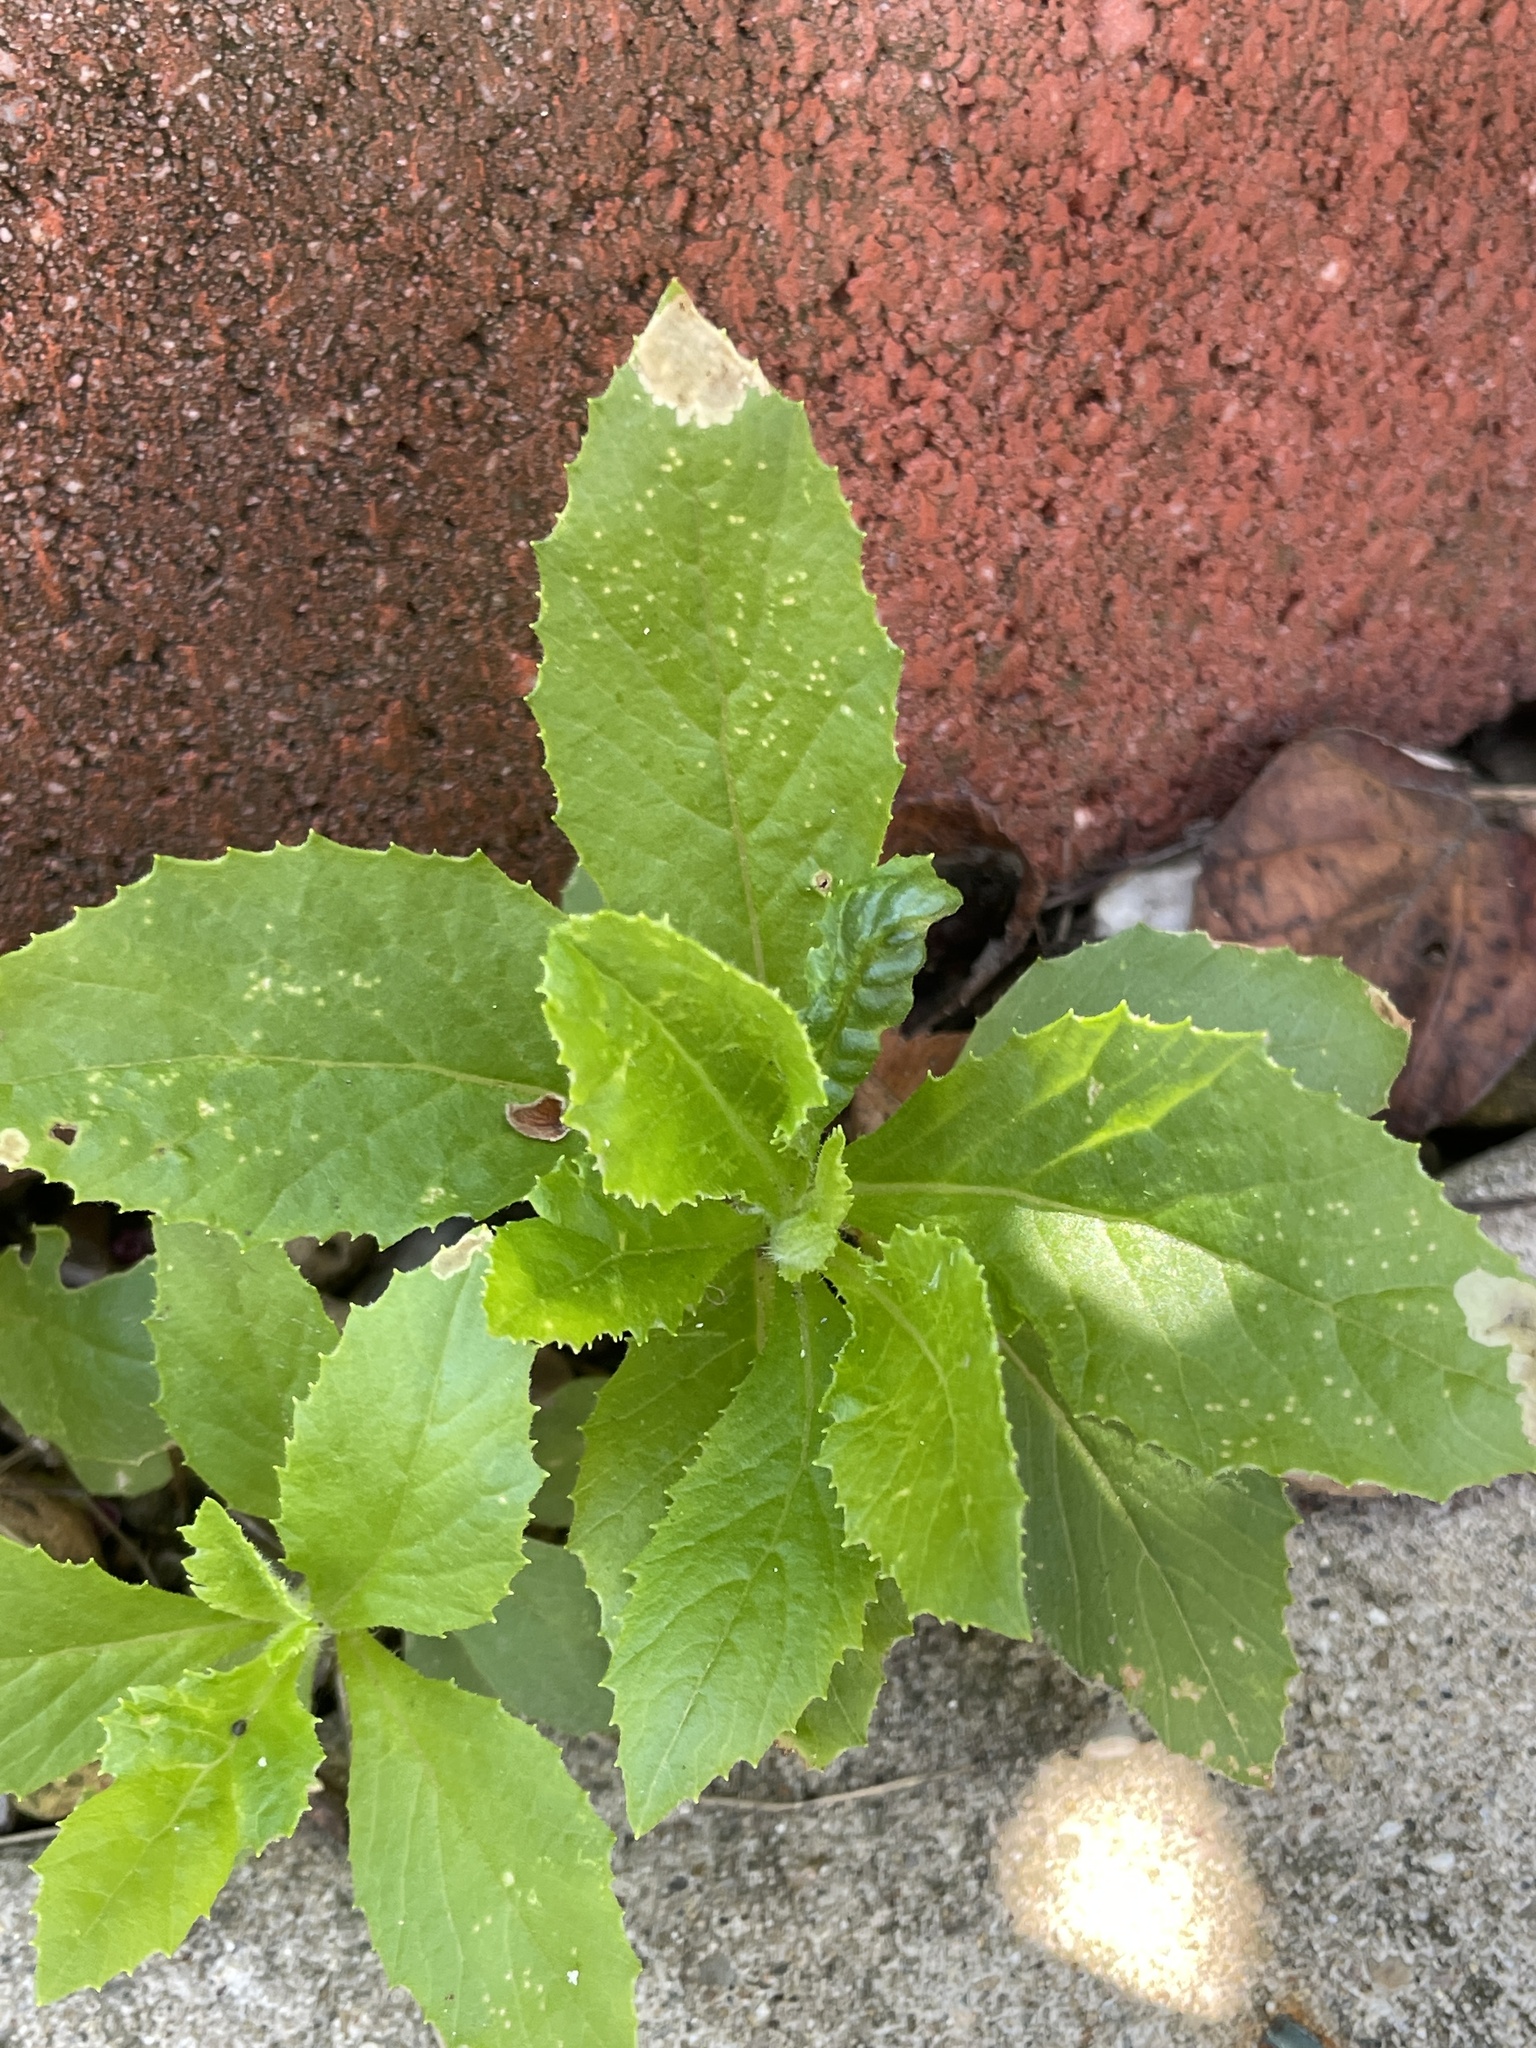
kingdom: Plantae
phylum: Tracheophyta
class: Magnoliopsida
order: Asterales
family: Asteraceae
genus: Erechtites
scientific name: Erechtites hieraciifolius
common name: American burnweed
